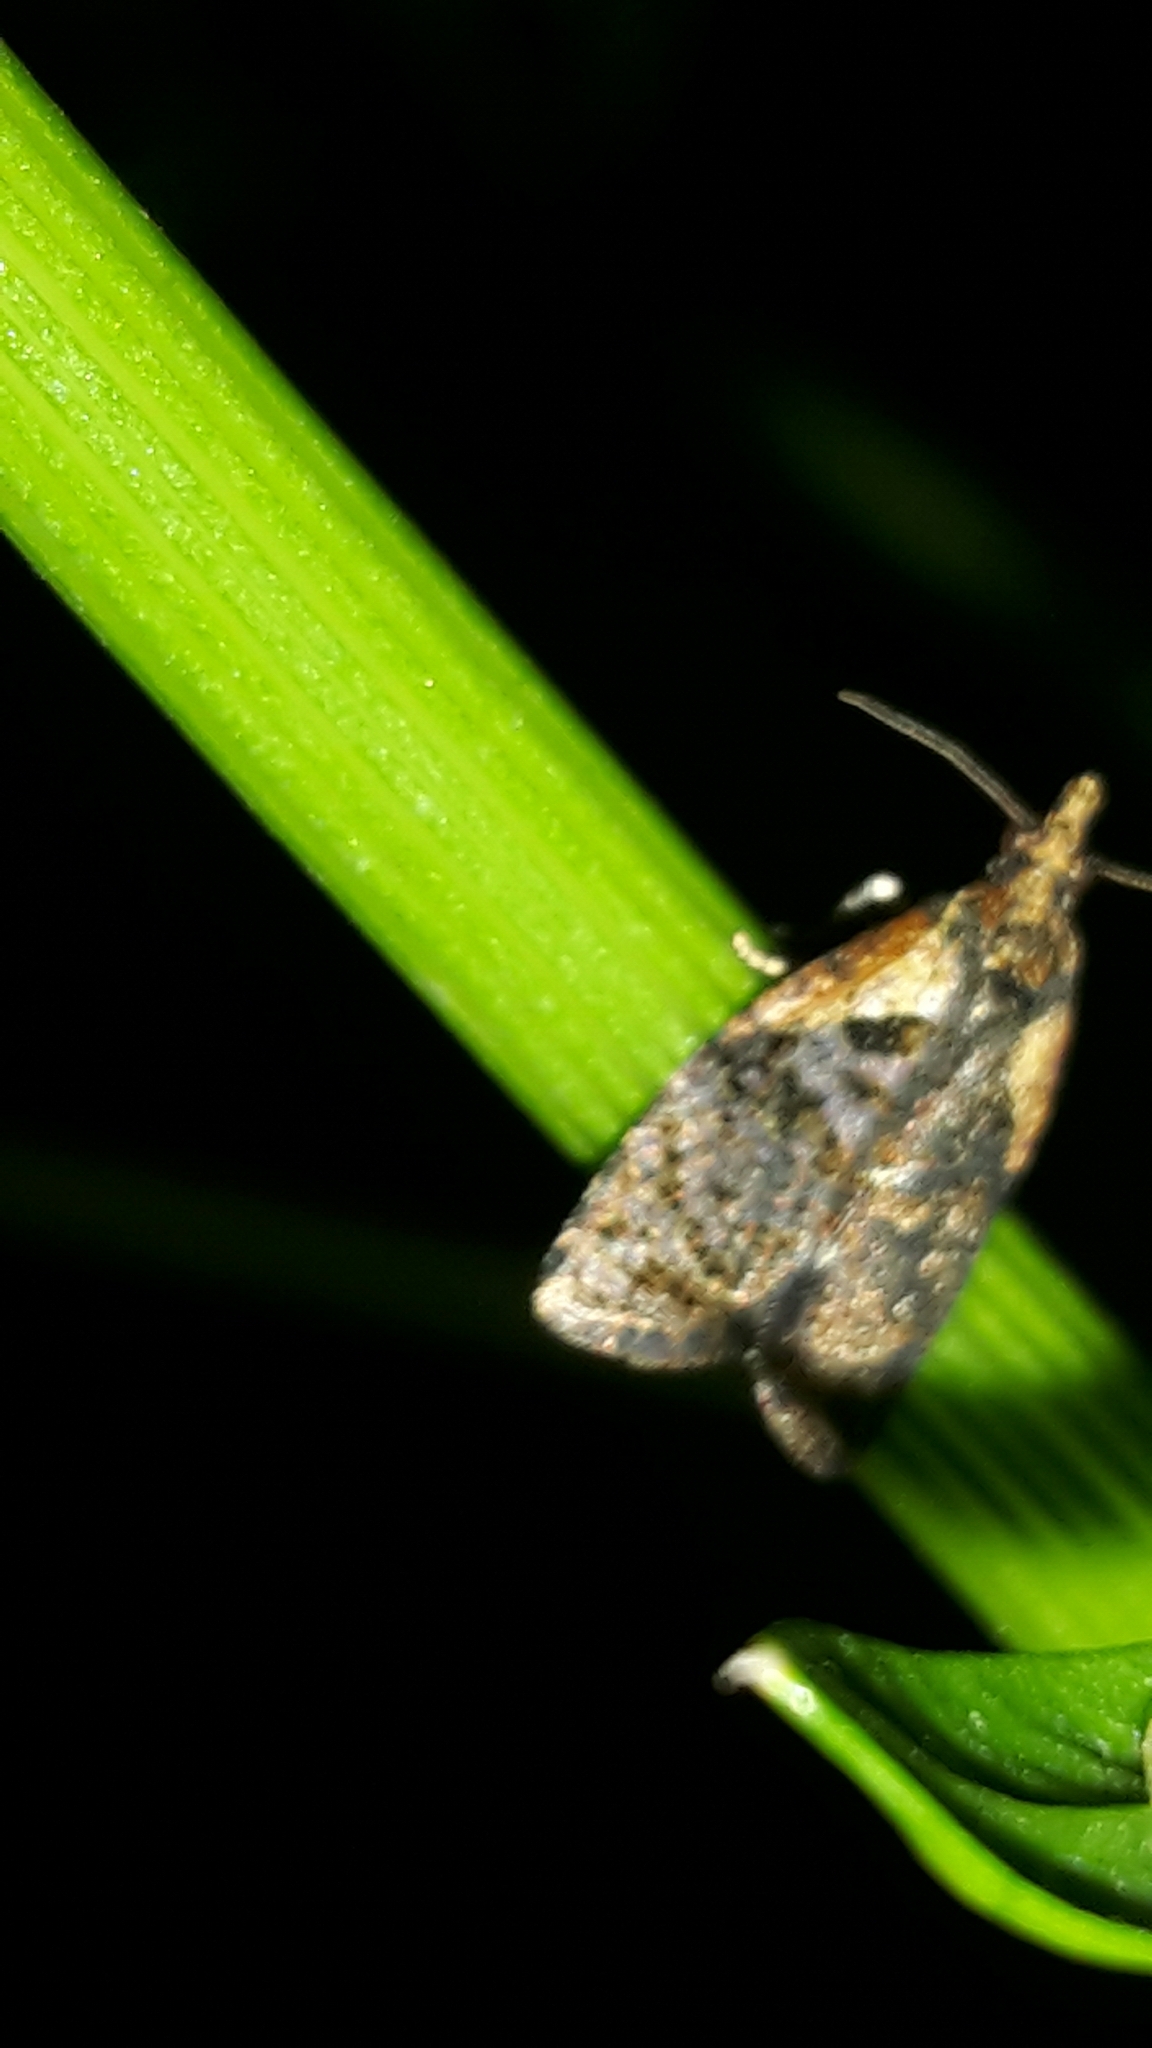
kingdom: Animalia
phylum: Arthropoda
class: Insecta
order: Lepidoptera
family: Tortricidae
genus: Capua
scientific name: Capua intractana
